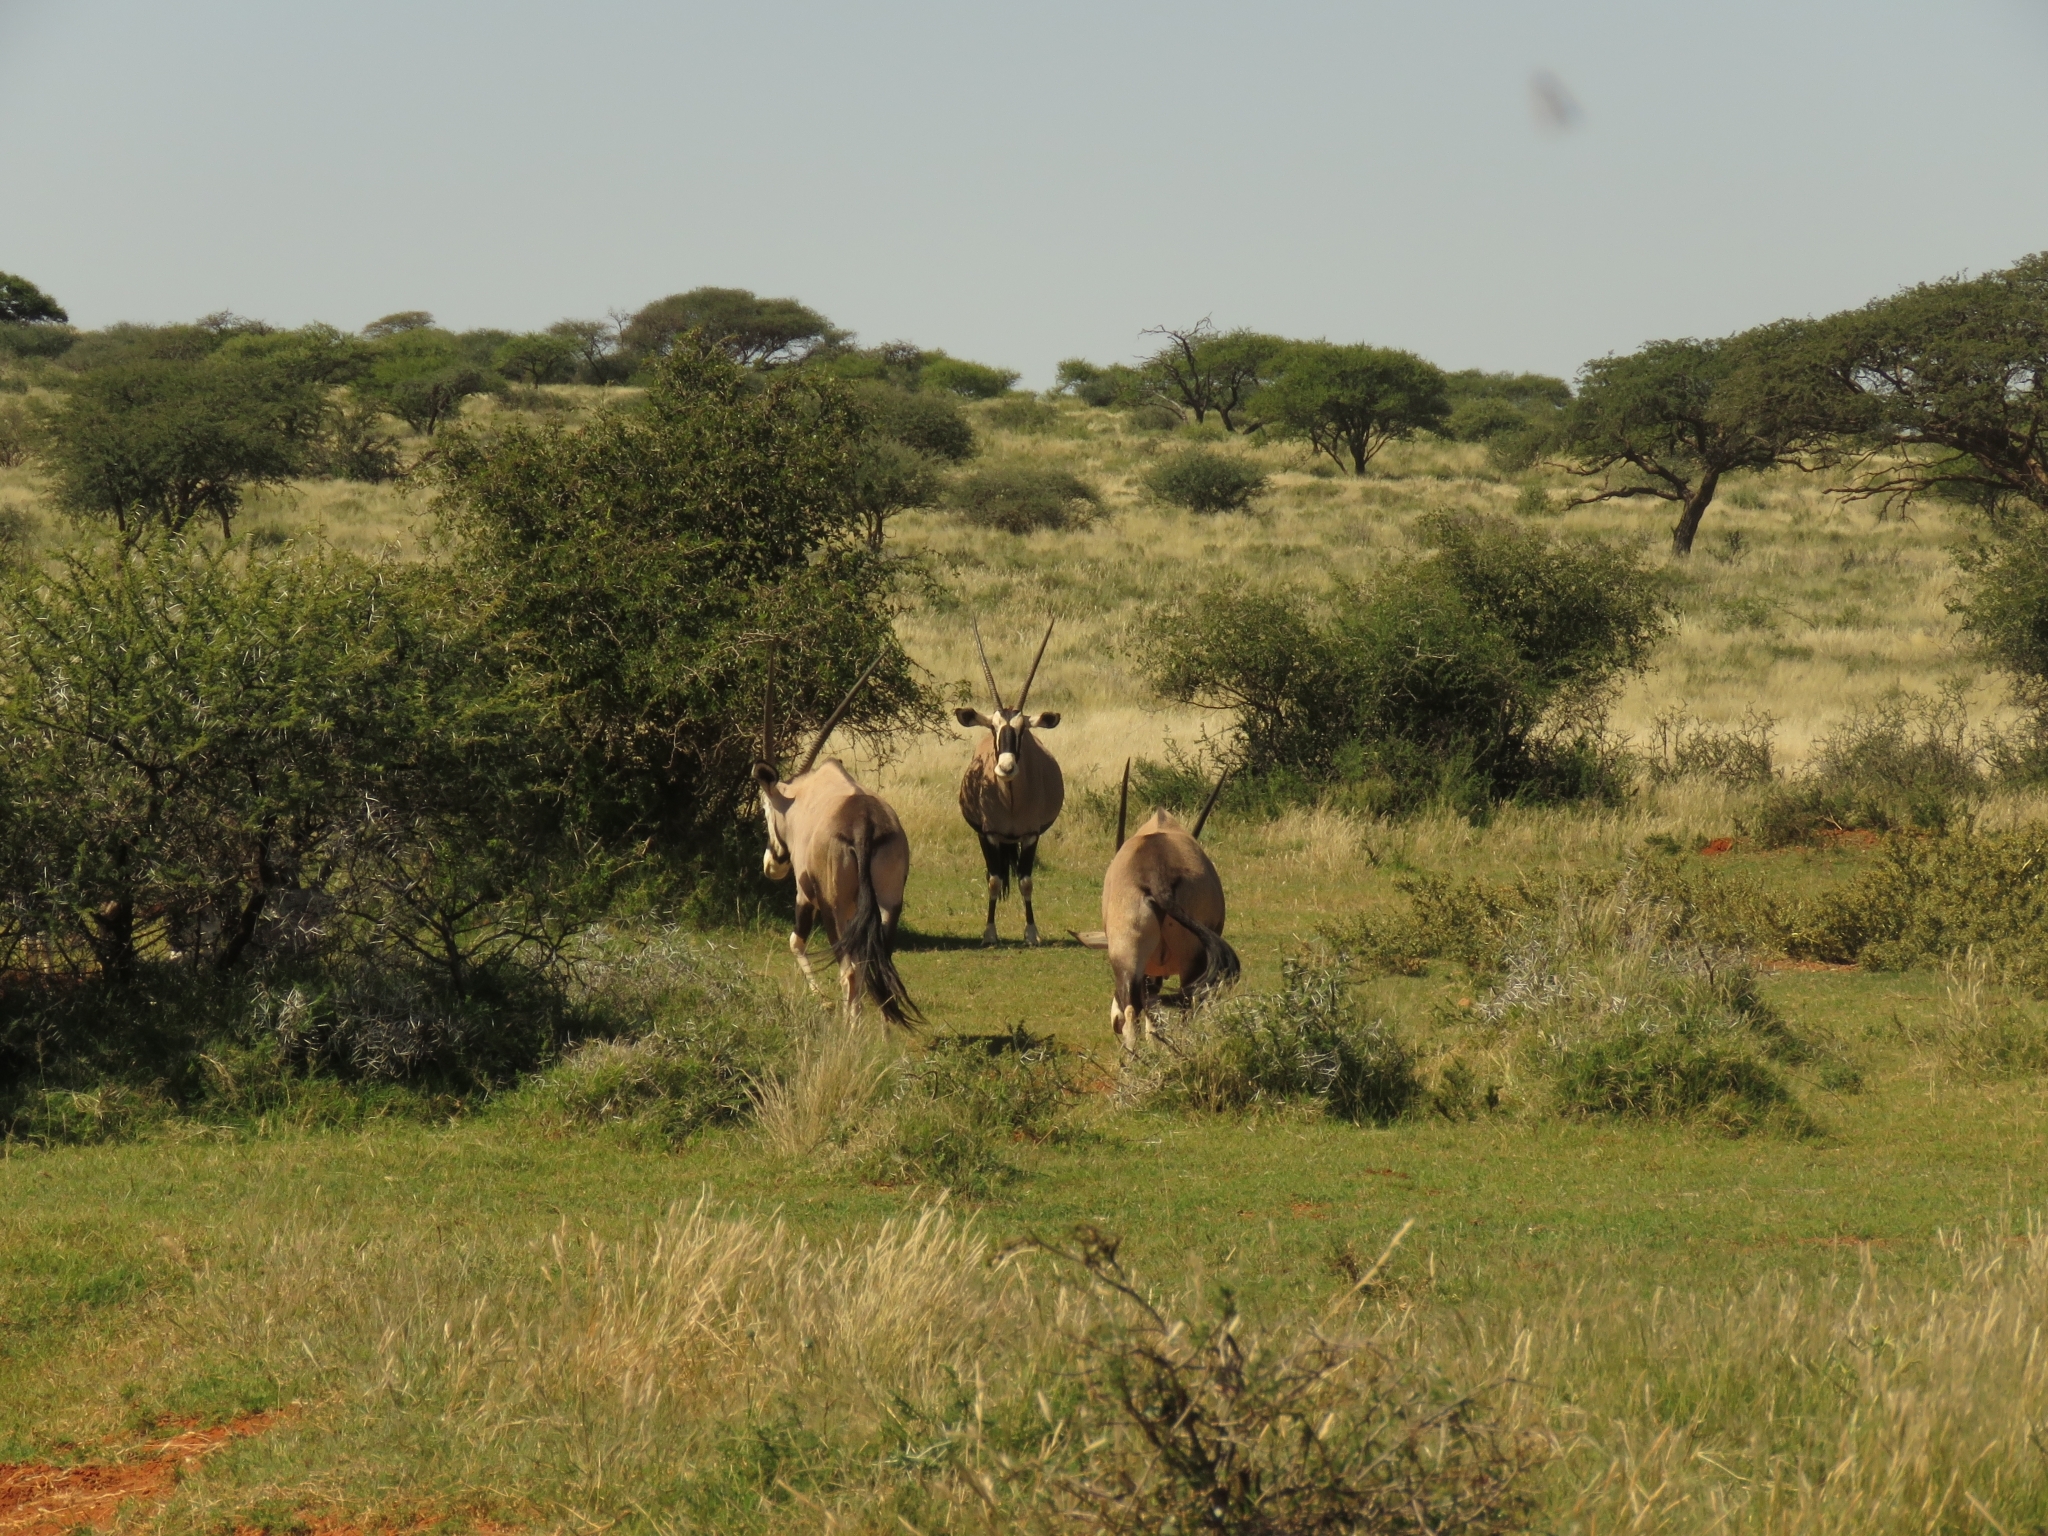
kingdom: Animalia
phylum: Chordata
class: Mammalia
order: Artiodactyla
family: Bovidae
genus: Oryx
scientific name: Oryx gazella
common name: Gemsbok
